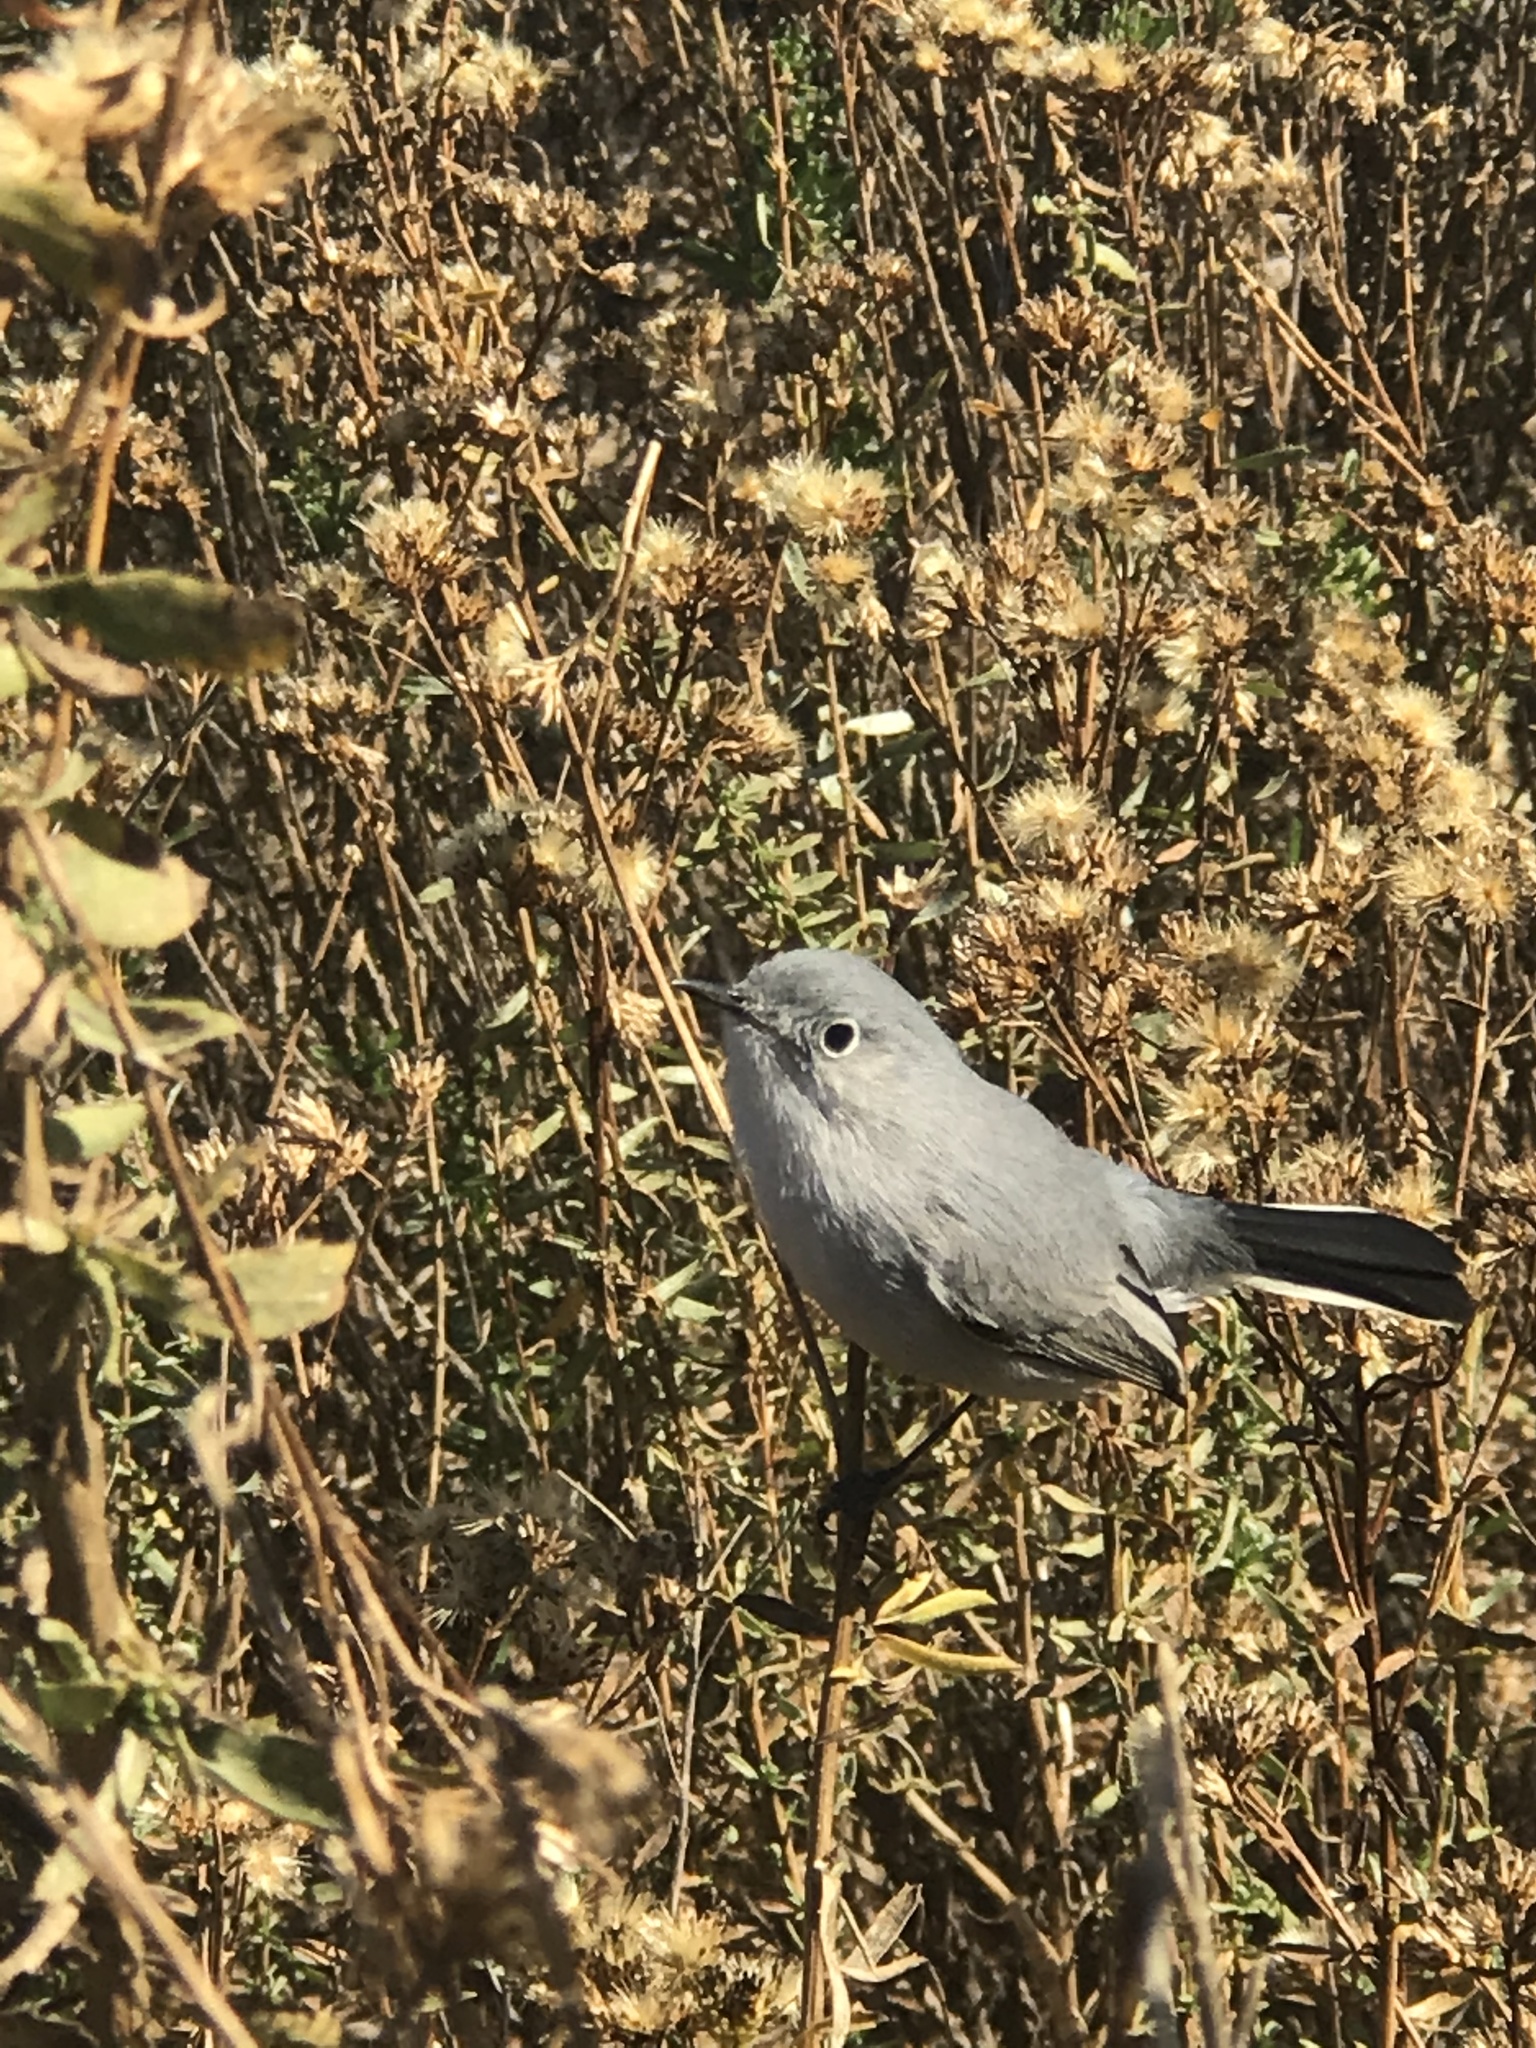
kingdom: Animalia
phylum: Chordata
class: Aves
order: Passeriformes
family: Polioptilidae
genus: Polioptila
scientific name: Polioptila caerulea
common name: Blue-gray gnatcatcher
